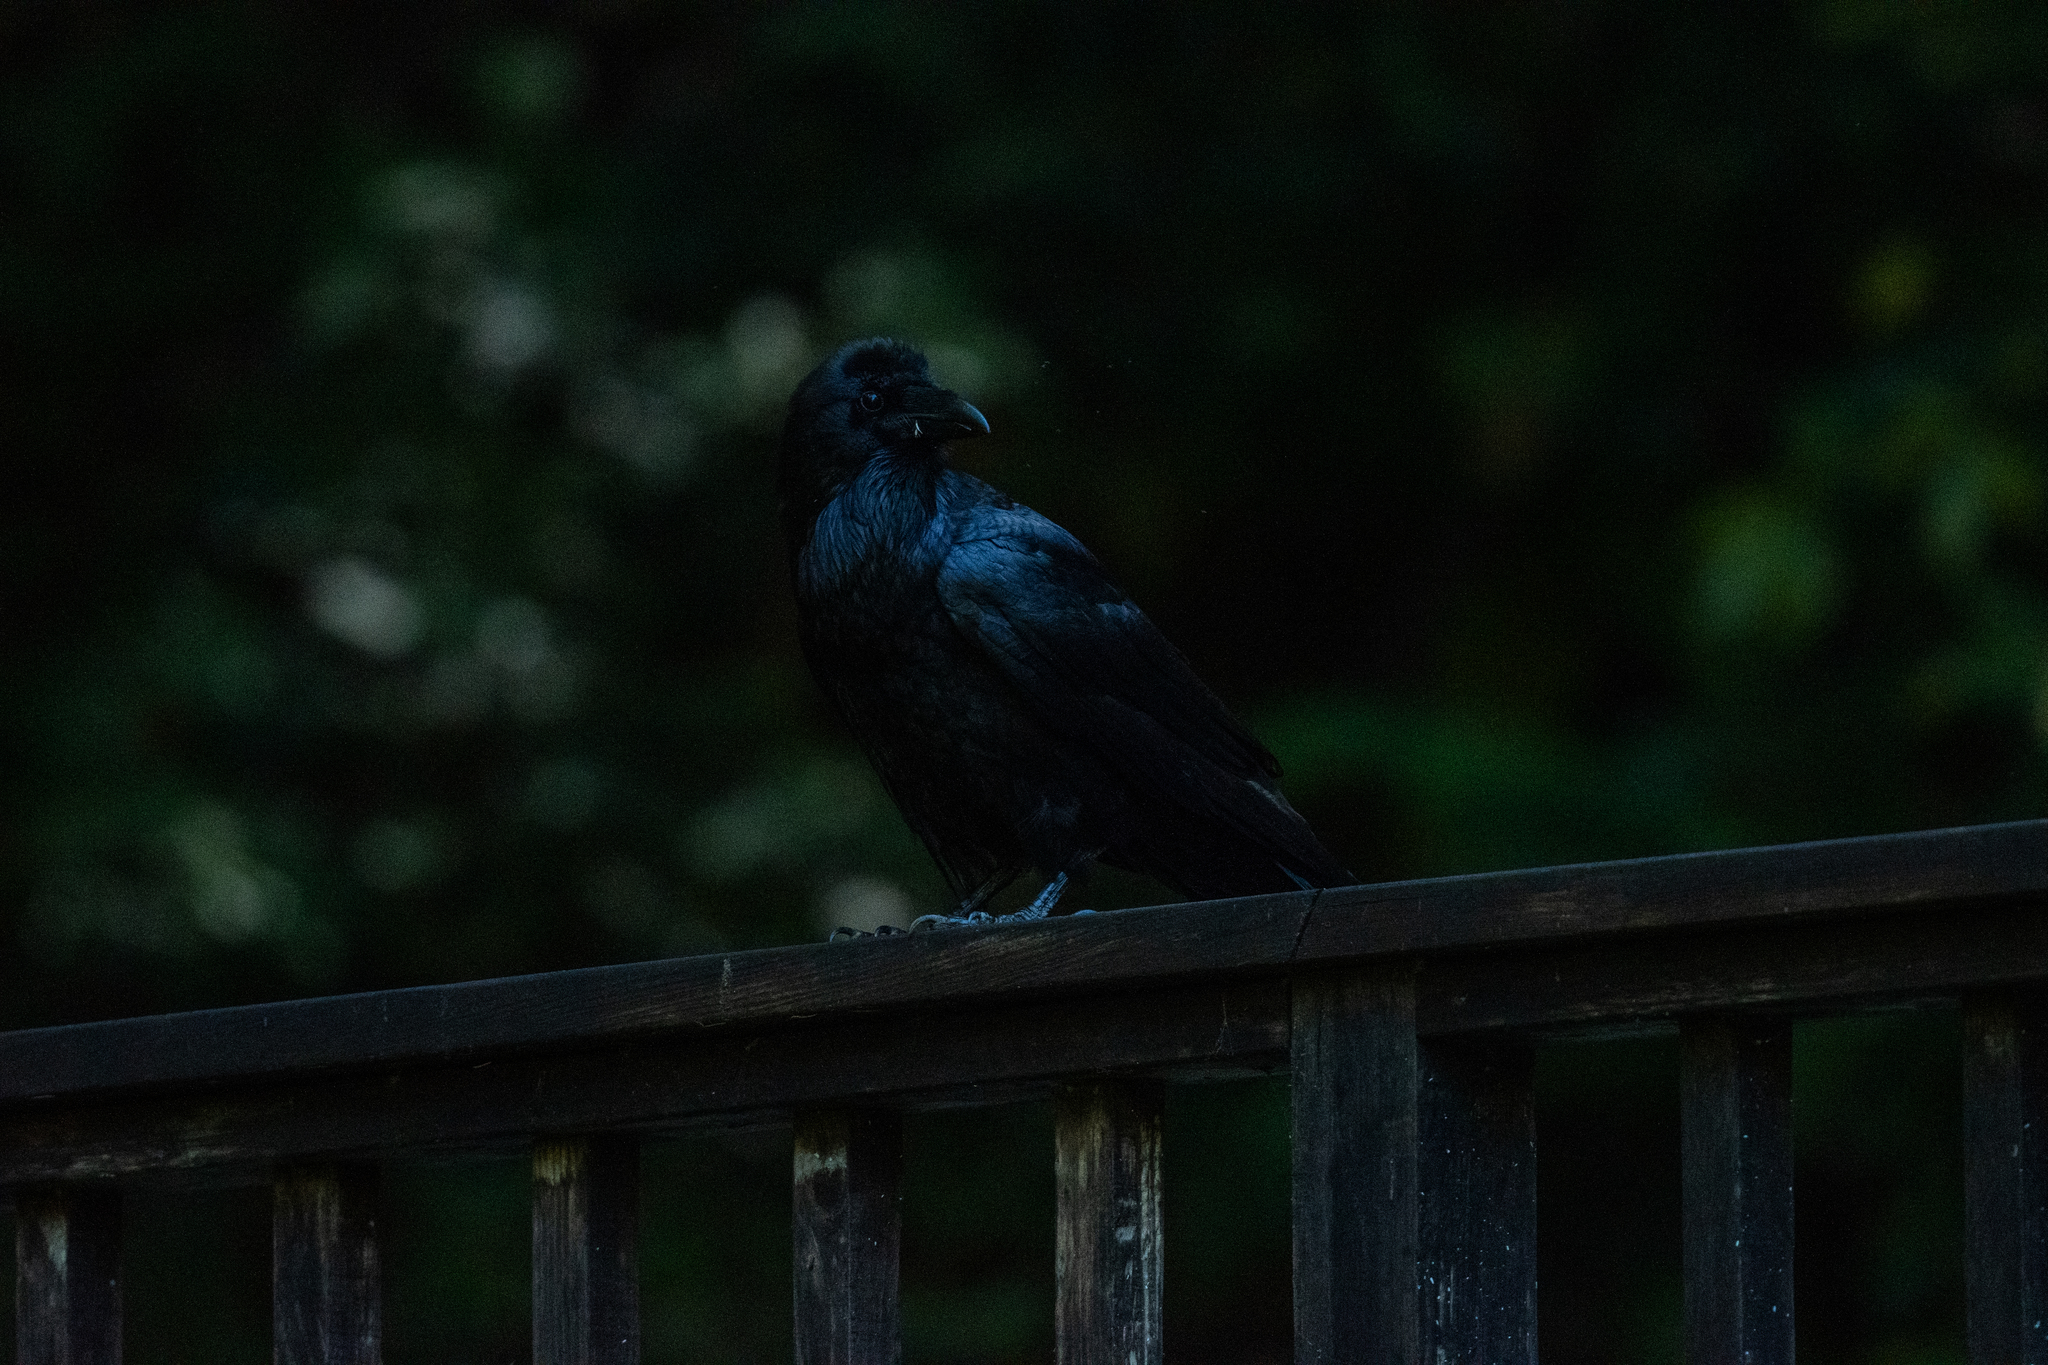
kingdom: Animalia
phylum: Chordata
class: Aves
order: Passeriformes
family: Corvidae
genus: Corvus
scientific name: Corvus corax
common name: Common raven
